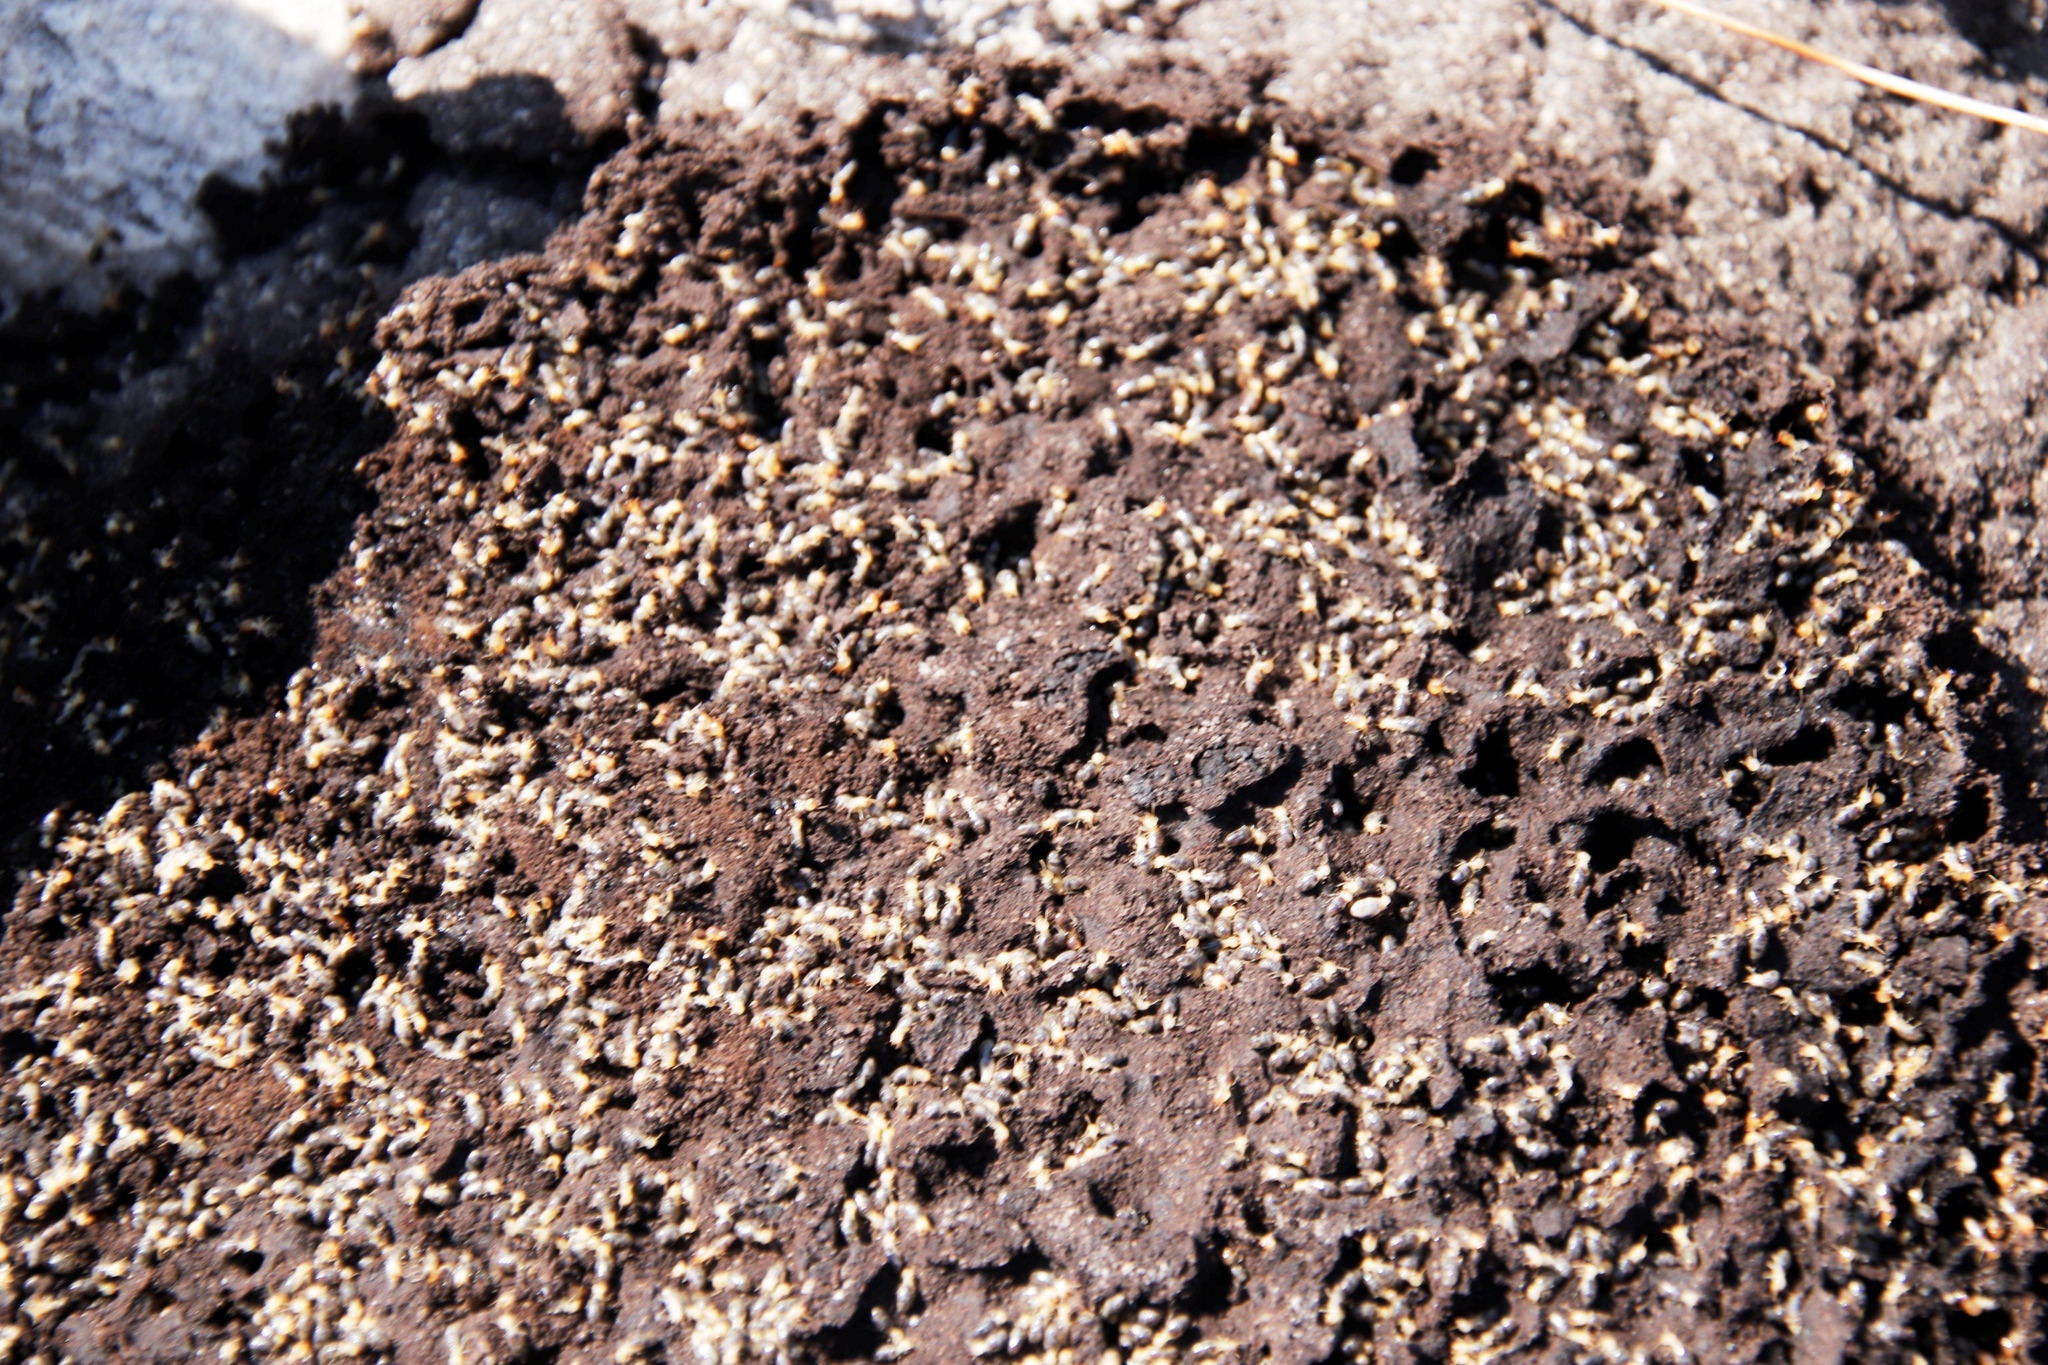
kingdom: Animalia
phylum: Arthropoda
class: Insecta
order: Blattodea
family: Termitidae
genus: Amitermes
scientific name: Amitermes hastatus
